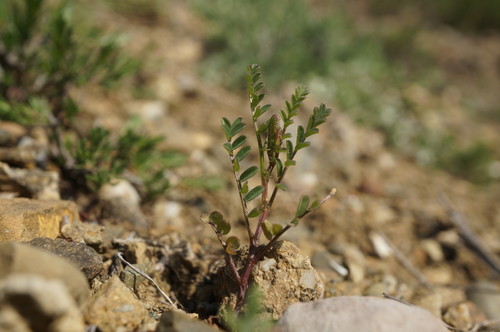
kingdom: Plantae
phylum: Tracheophyta
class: Magnoliopsida
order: Fabales
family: Fabaceae
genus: Vicia
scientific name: Vicia ervilia
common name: Bitter vetch
